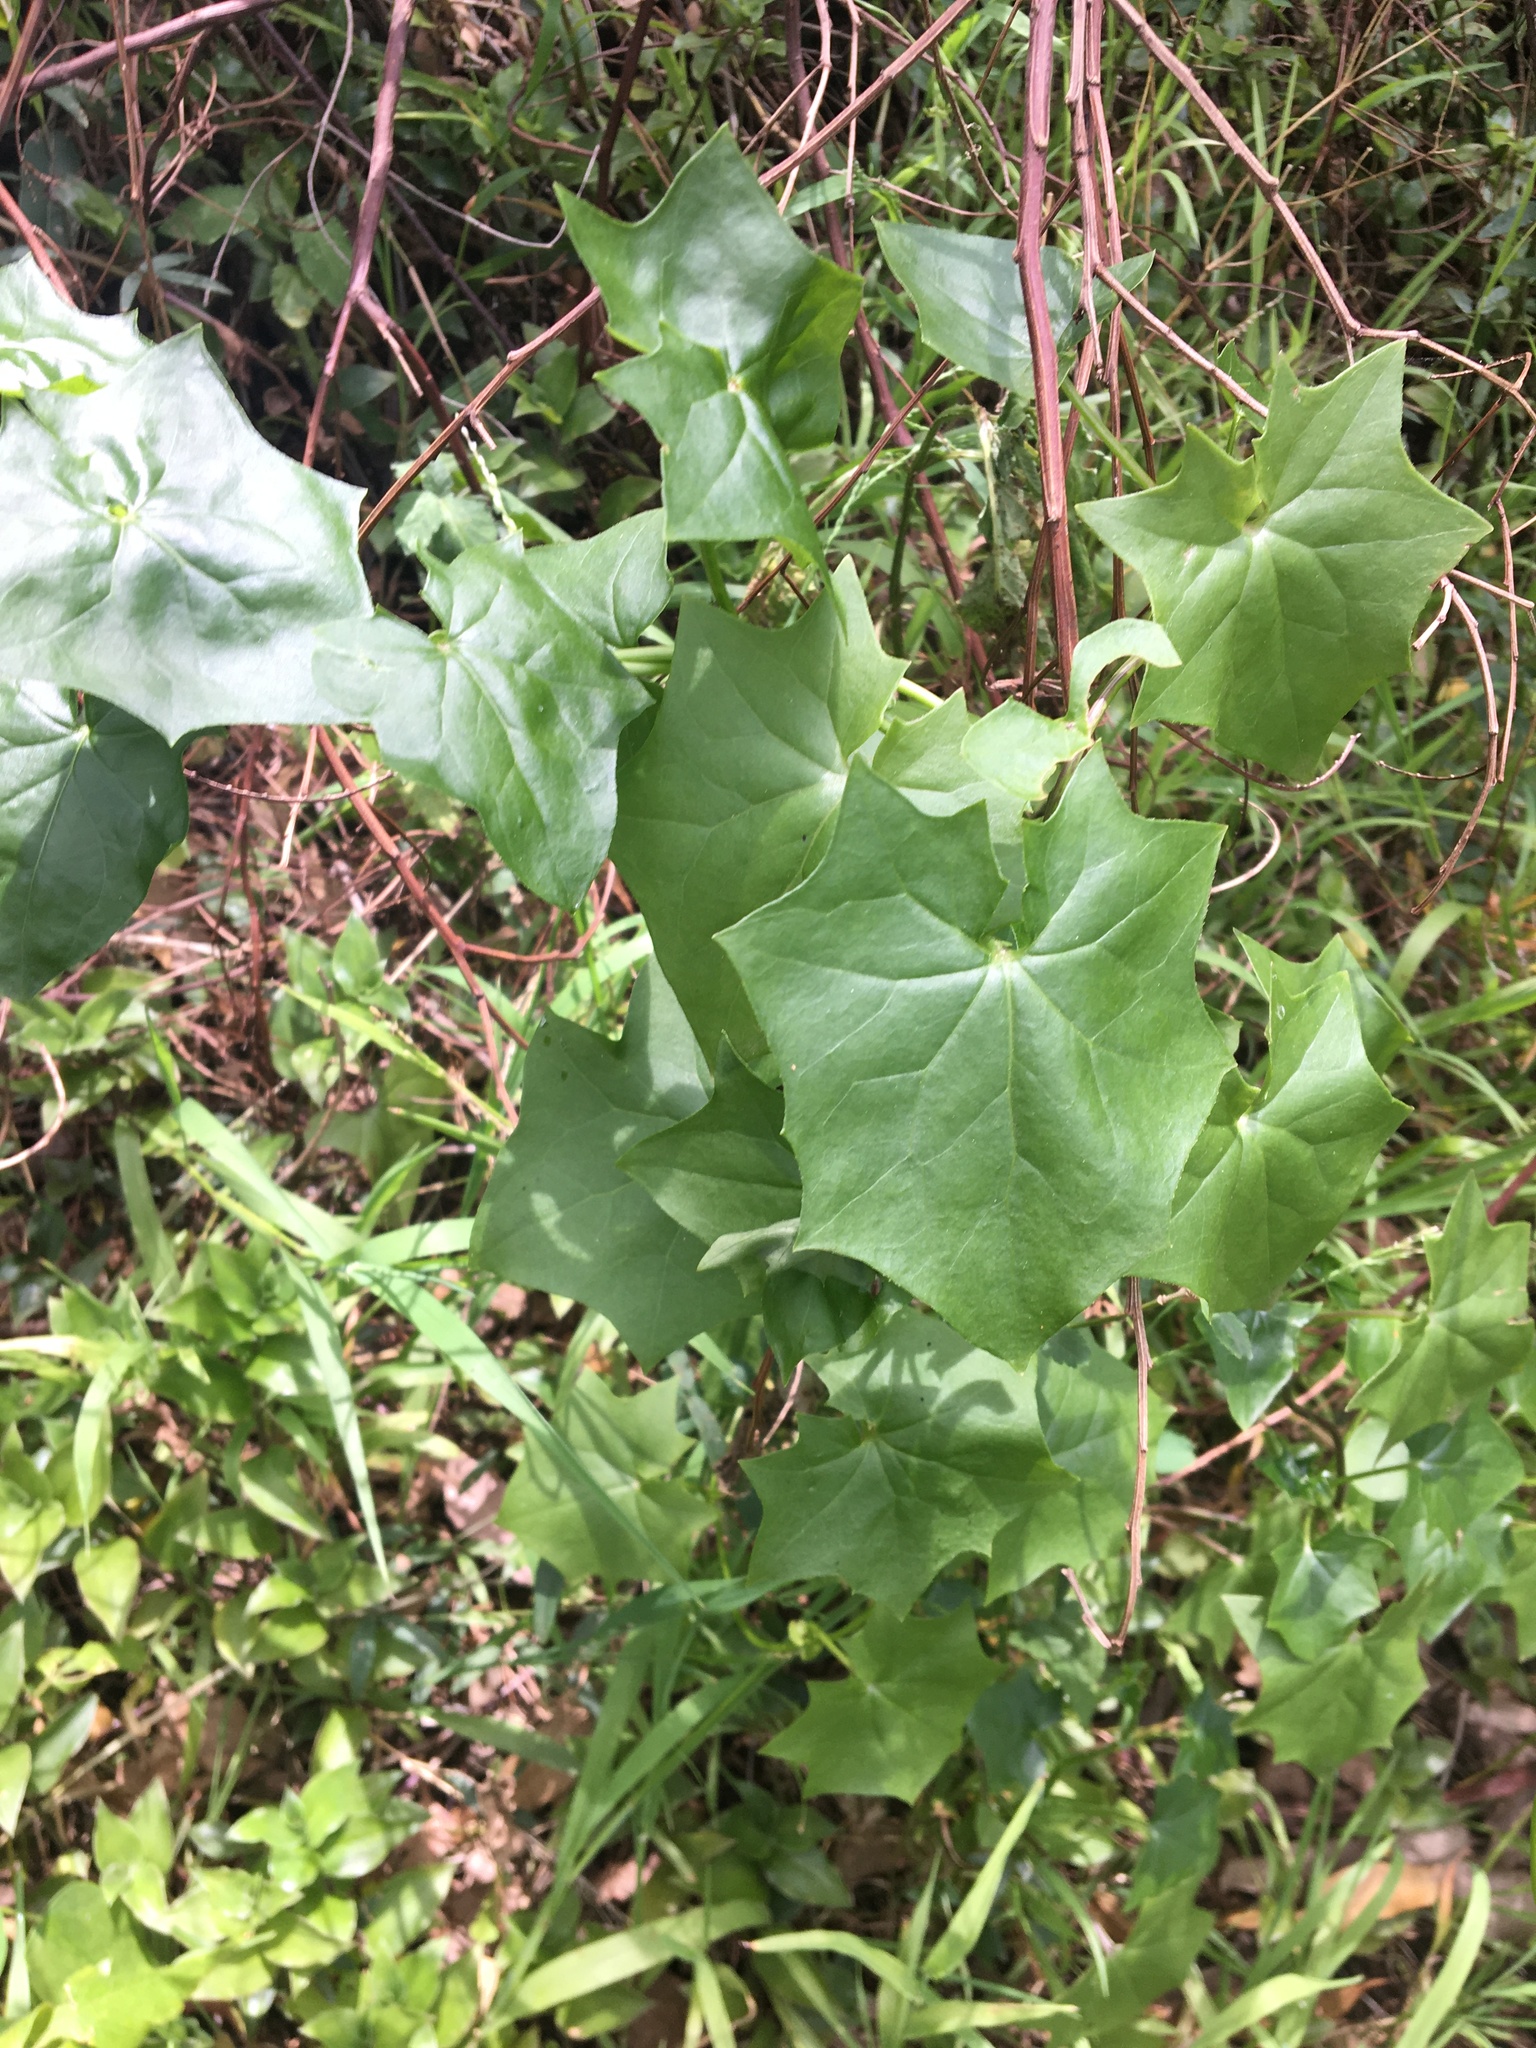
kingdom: Plantae
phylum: Tracheophyta
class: Magnoliopsida
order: Asterales
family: Asteraceae
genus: Delairea
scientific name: Delairea odorata
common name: Cape-ivy
